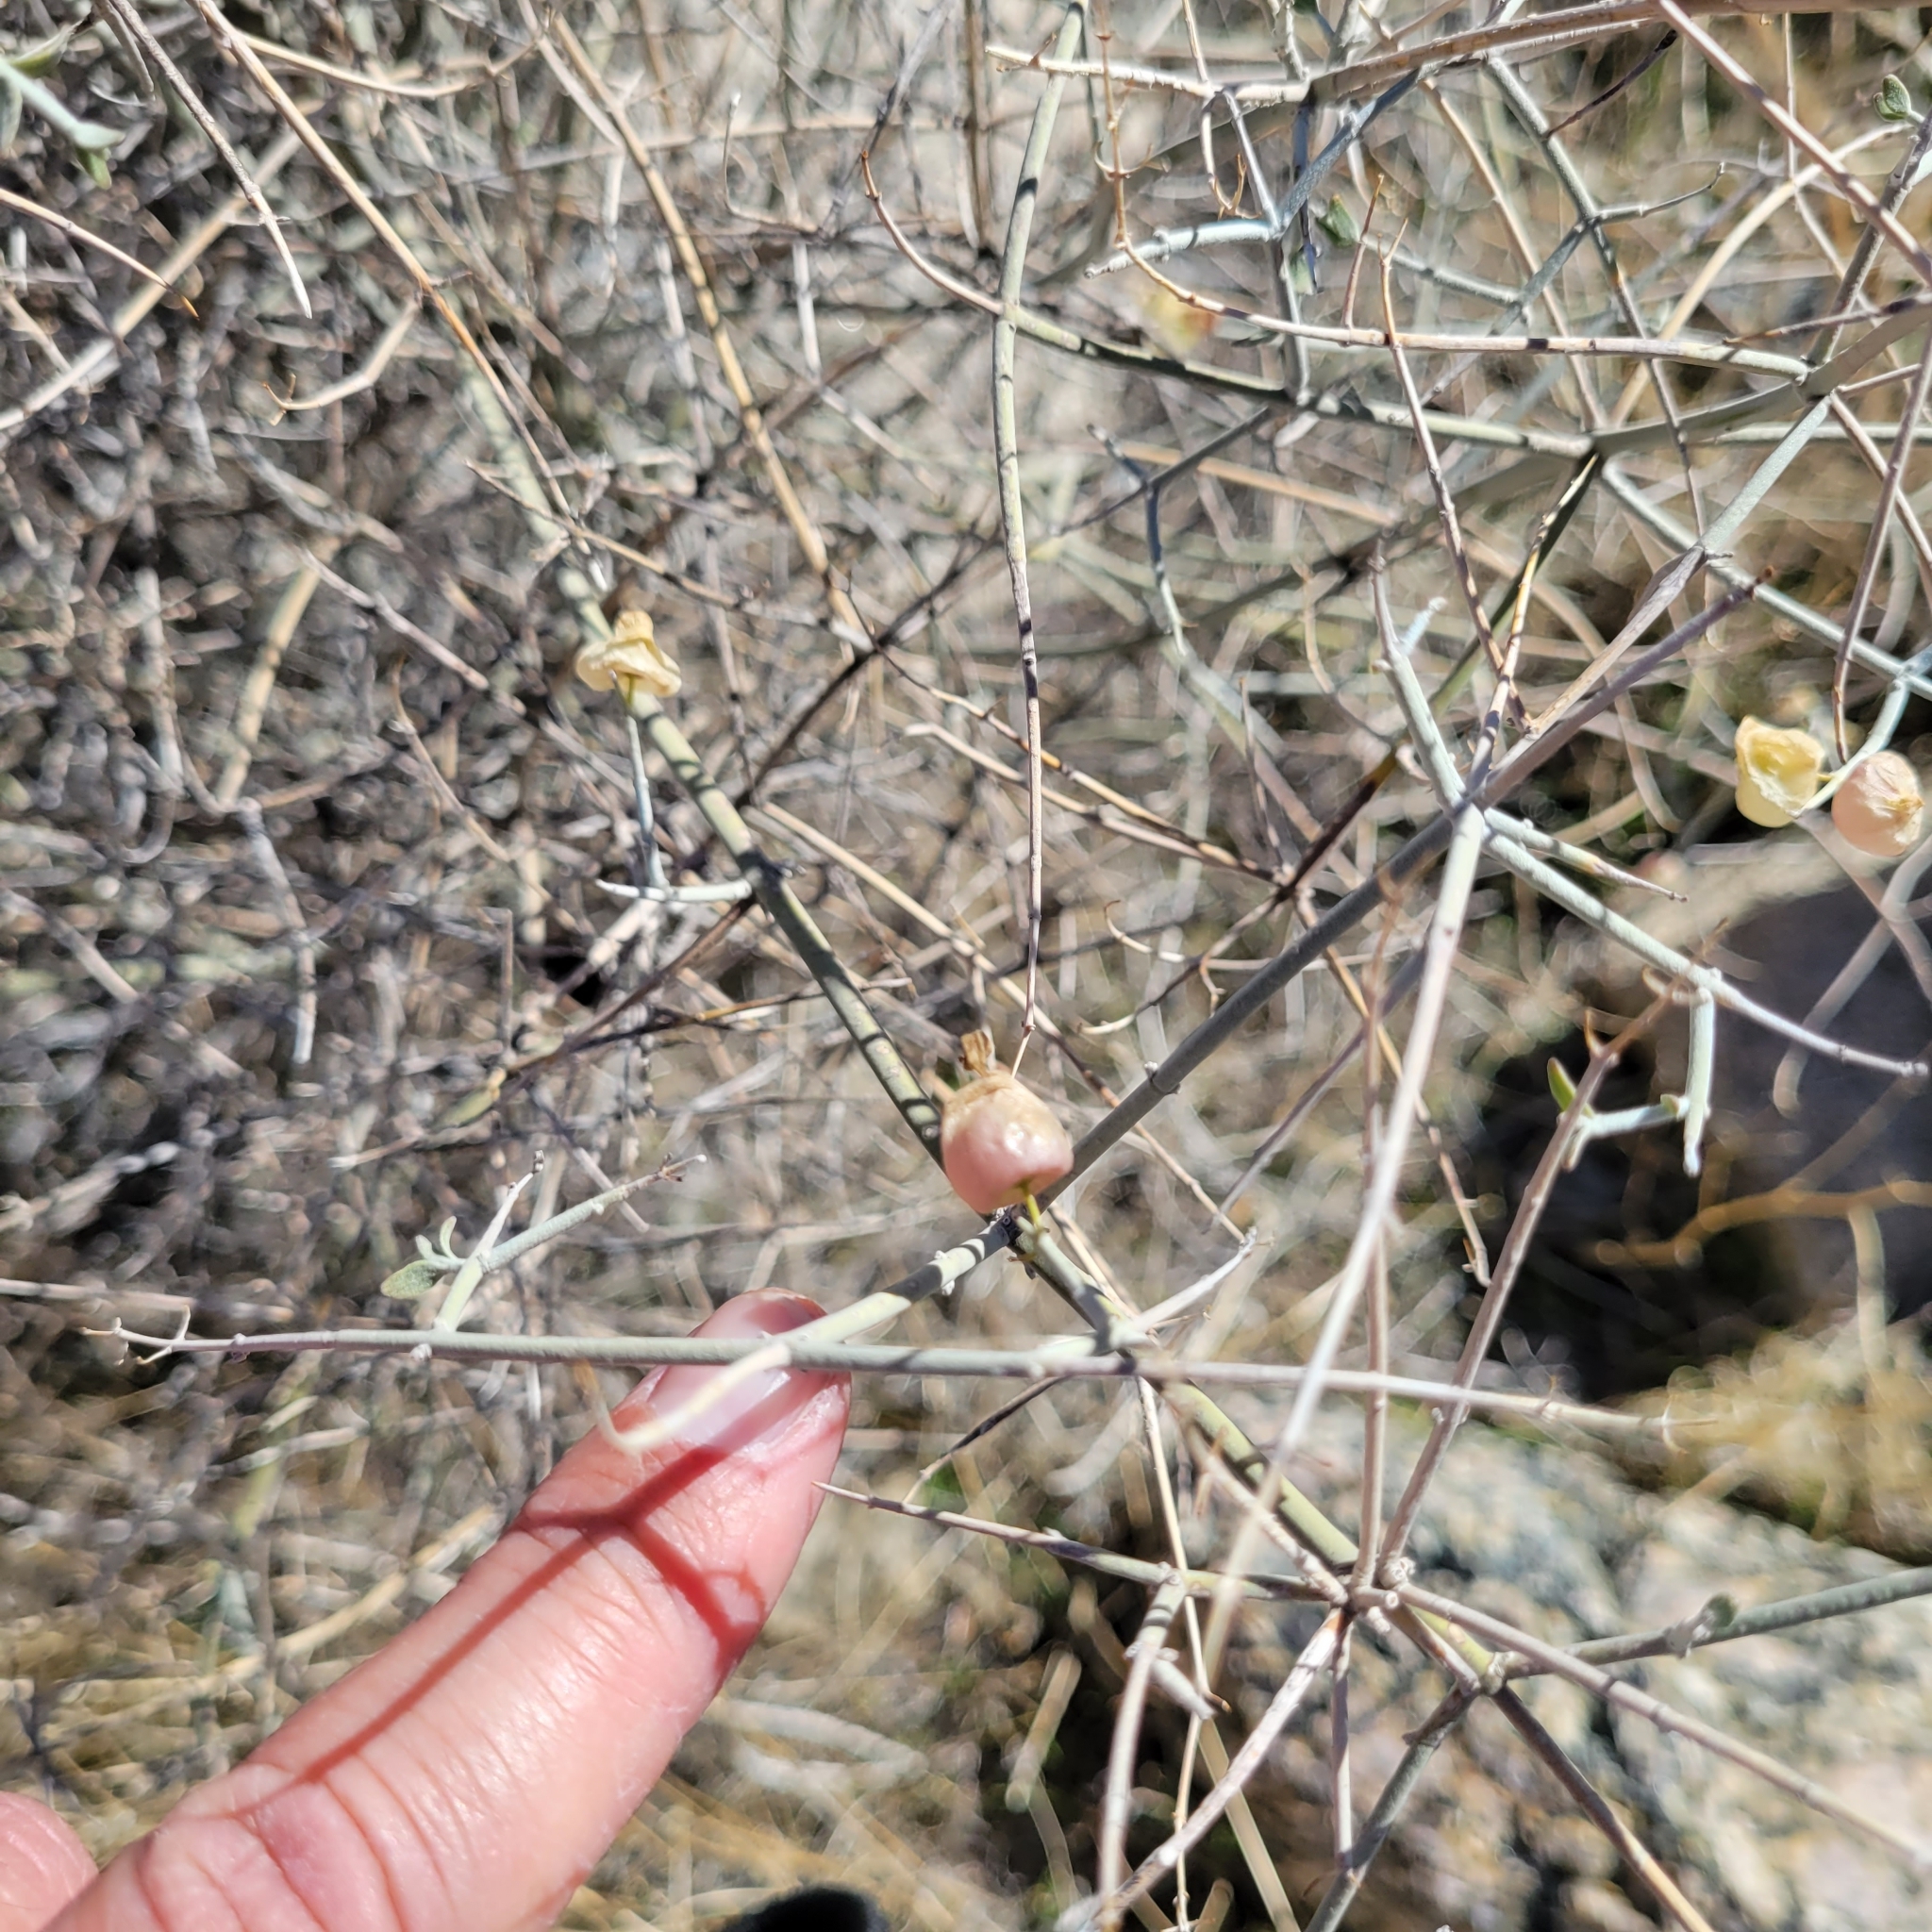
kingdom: Plantae
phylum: Tracheophyta
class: Magnoliopsida
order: Lamiales
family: Lamiaceae
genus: Scutellaria
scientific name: Scutellaria mexicana
